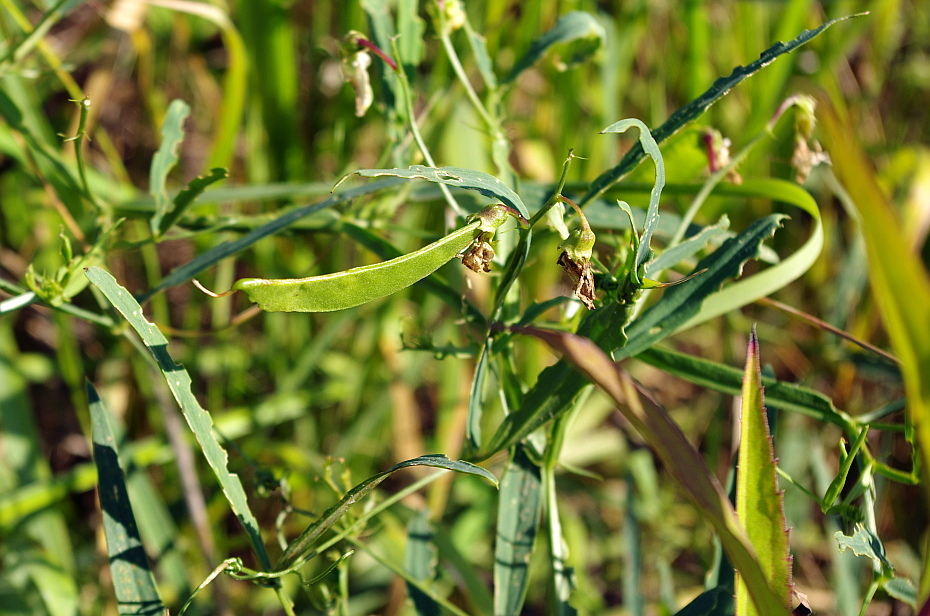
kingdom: Plantae
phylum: Tracheophyta
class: Magnoliopsida
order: Fabales
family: Fabaceae
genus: Lathyrus
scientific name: Lathyrus sylvestris
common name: Flat pea
